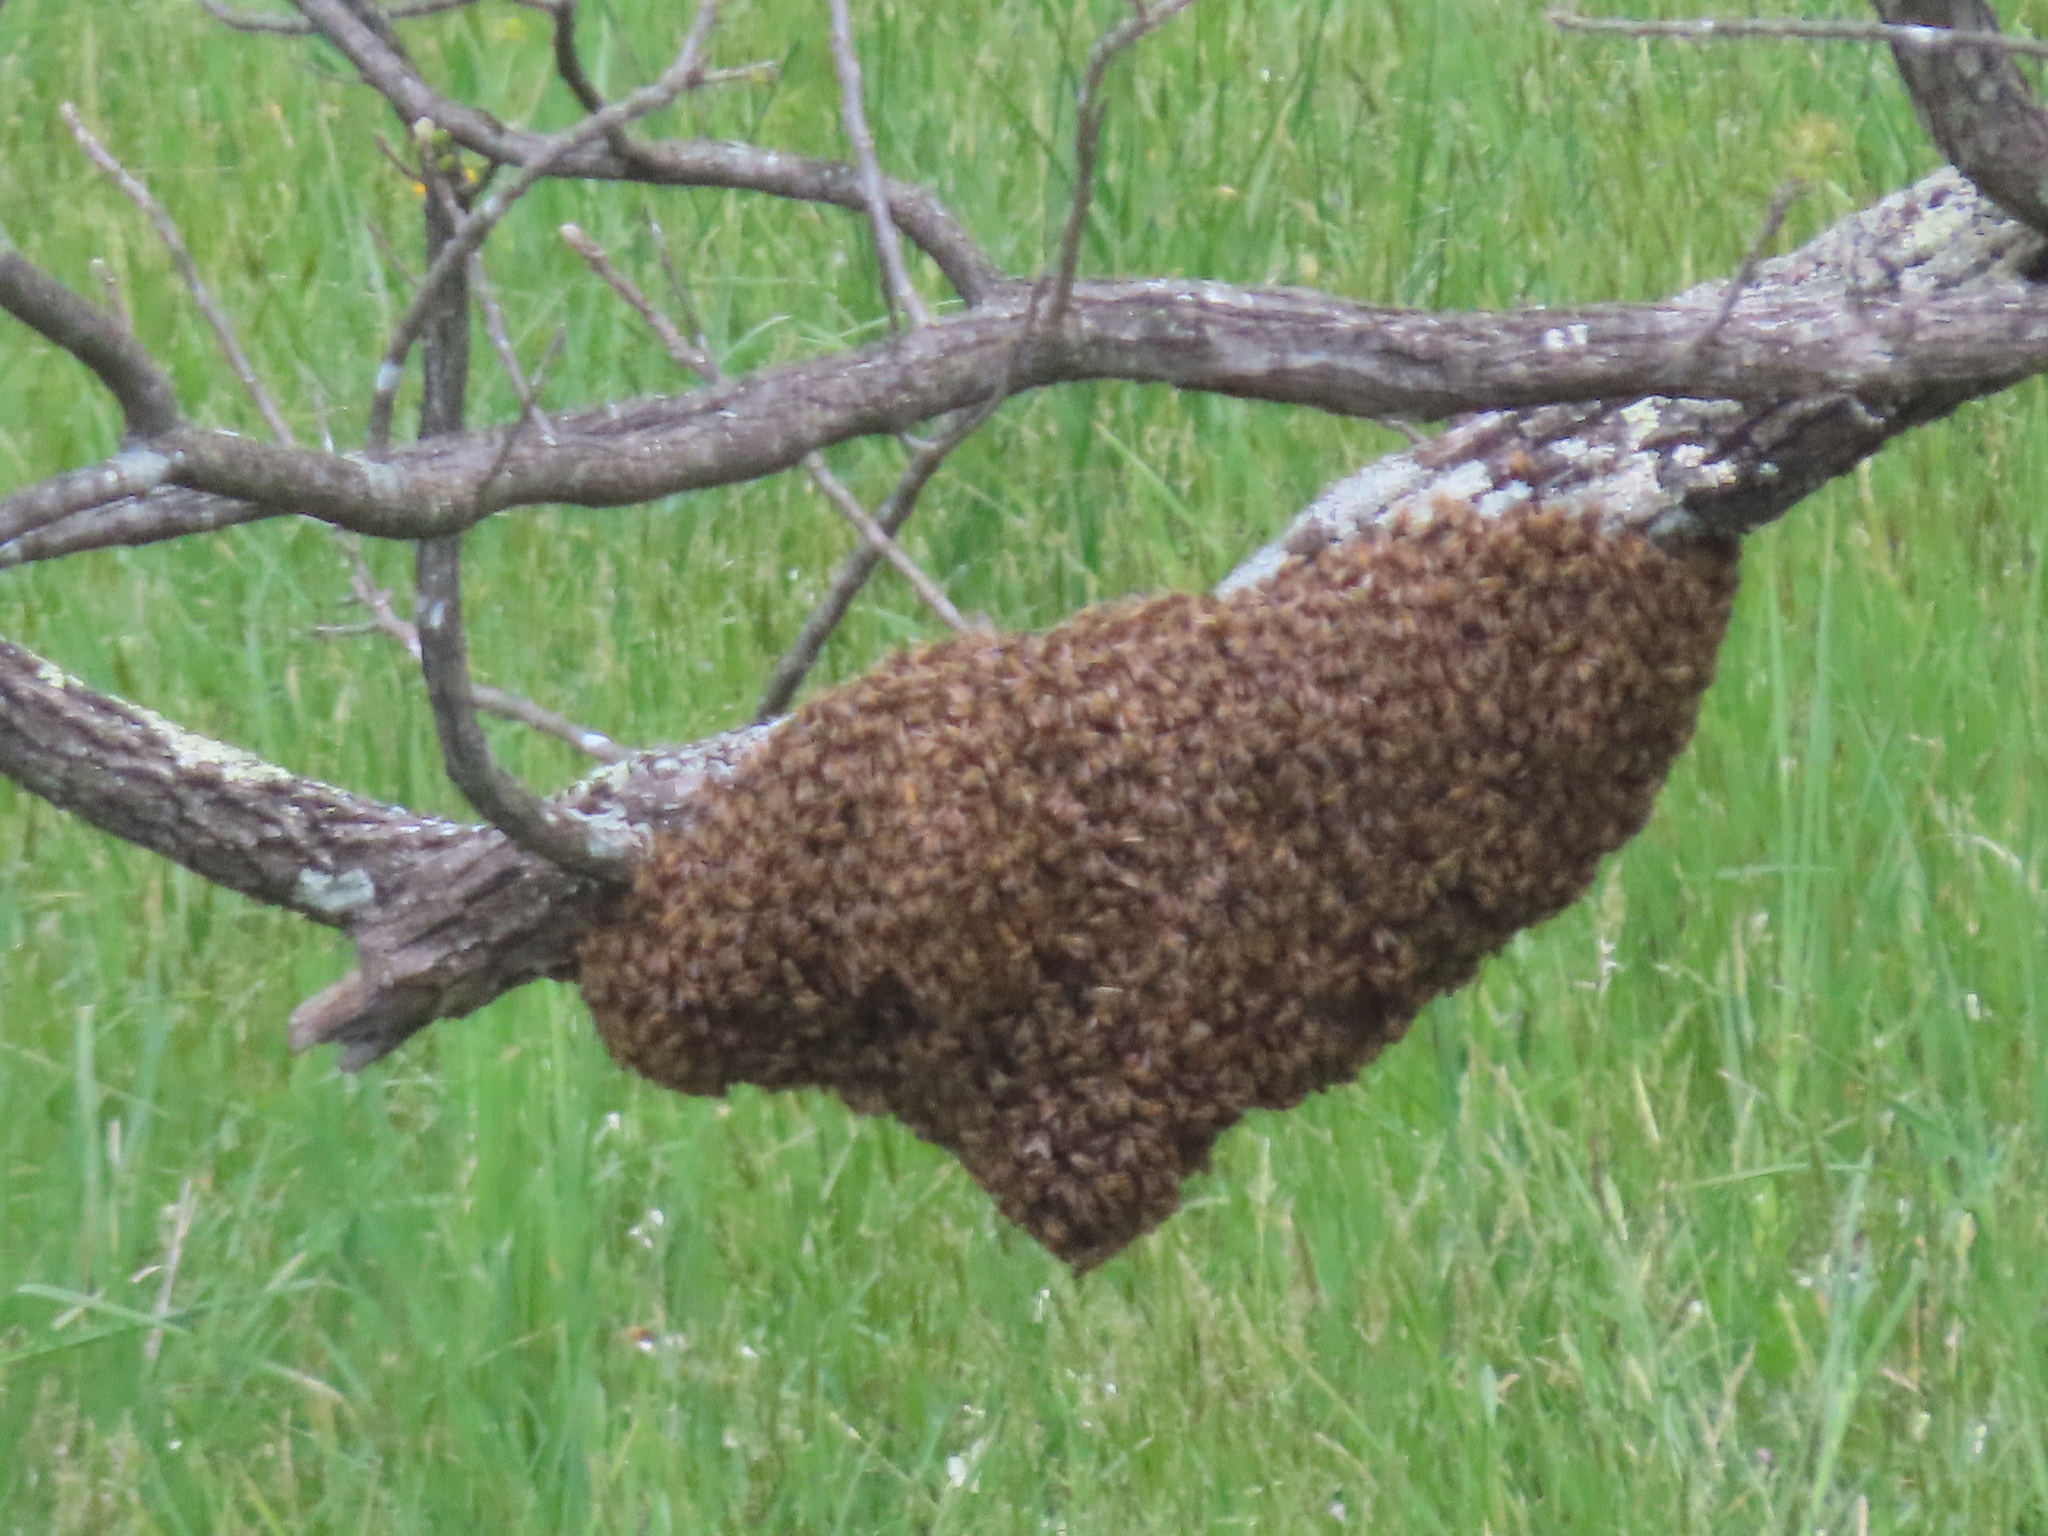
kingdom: Animalia
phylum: Arthropoda
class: Insecta
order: Hymenoptera
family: Apidae
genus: Apis
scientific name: Apis mellifera
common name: Honey bee
